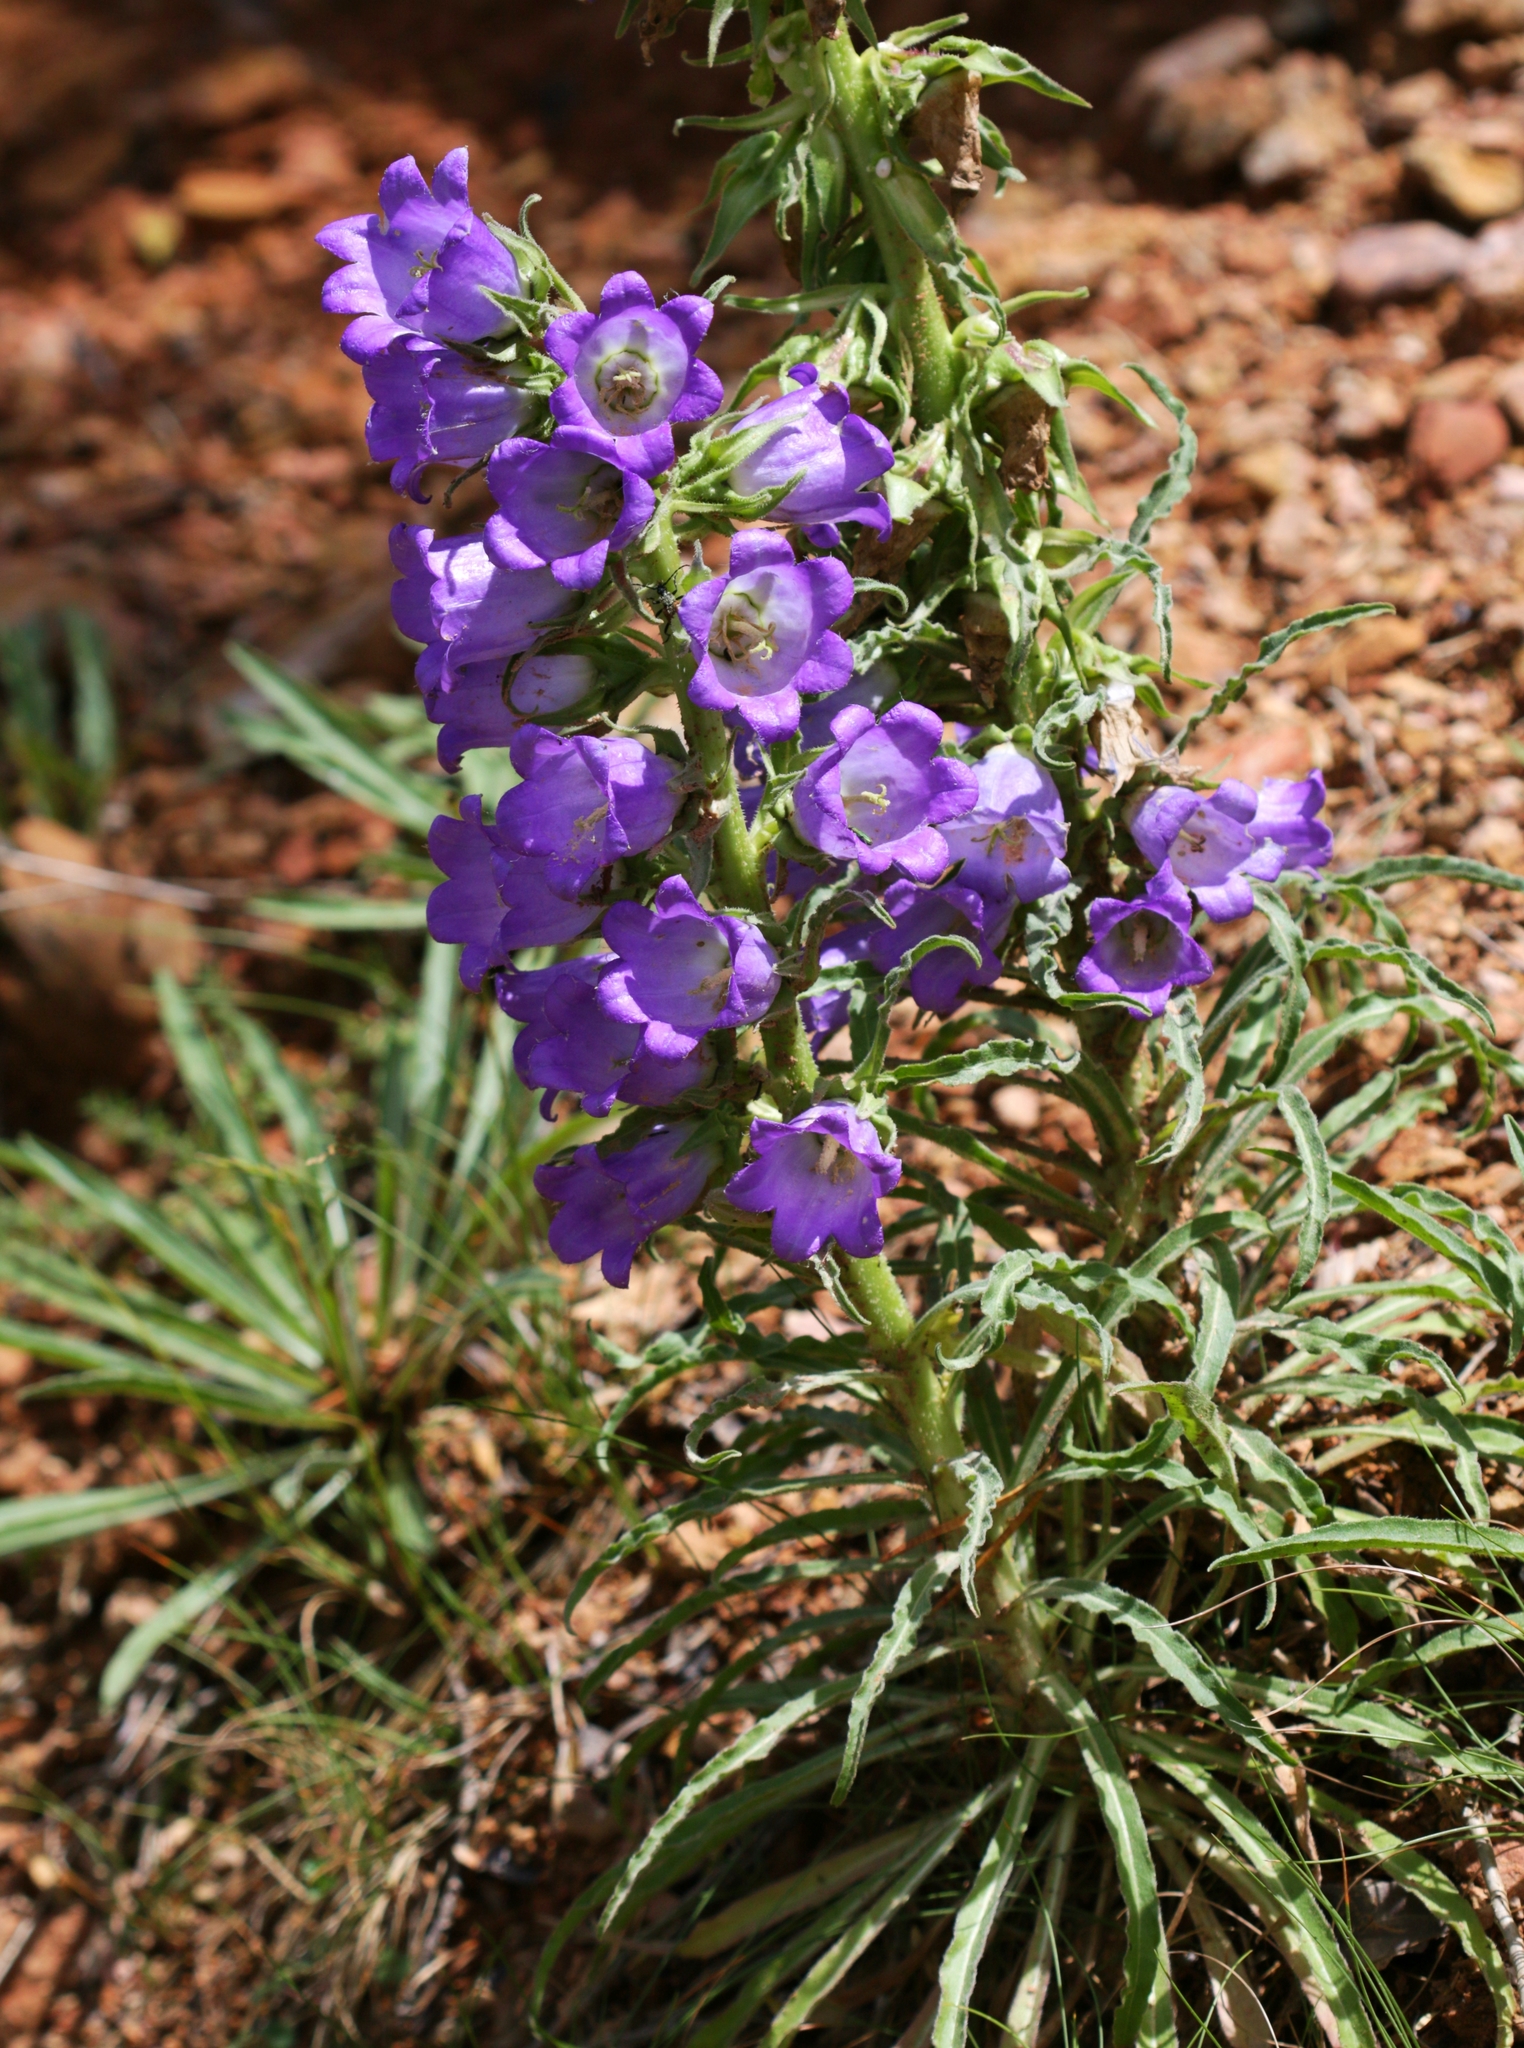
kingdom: Plantae
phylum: Tracheophyta
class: Magnoliopsida
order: Asterales
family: Campanulaceae
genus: Campanula
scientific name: Campanula speciosa
